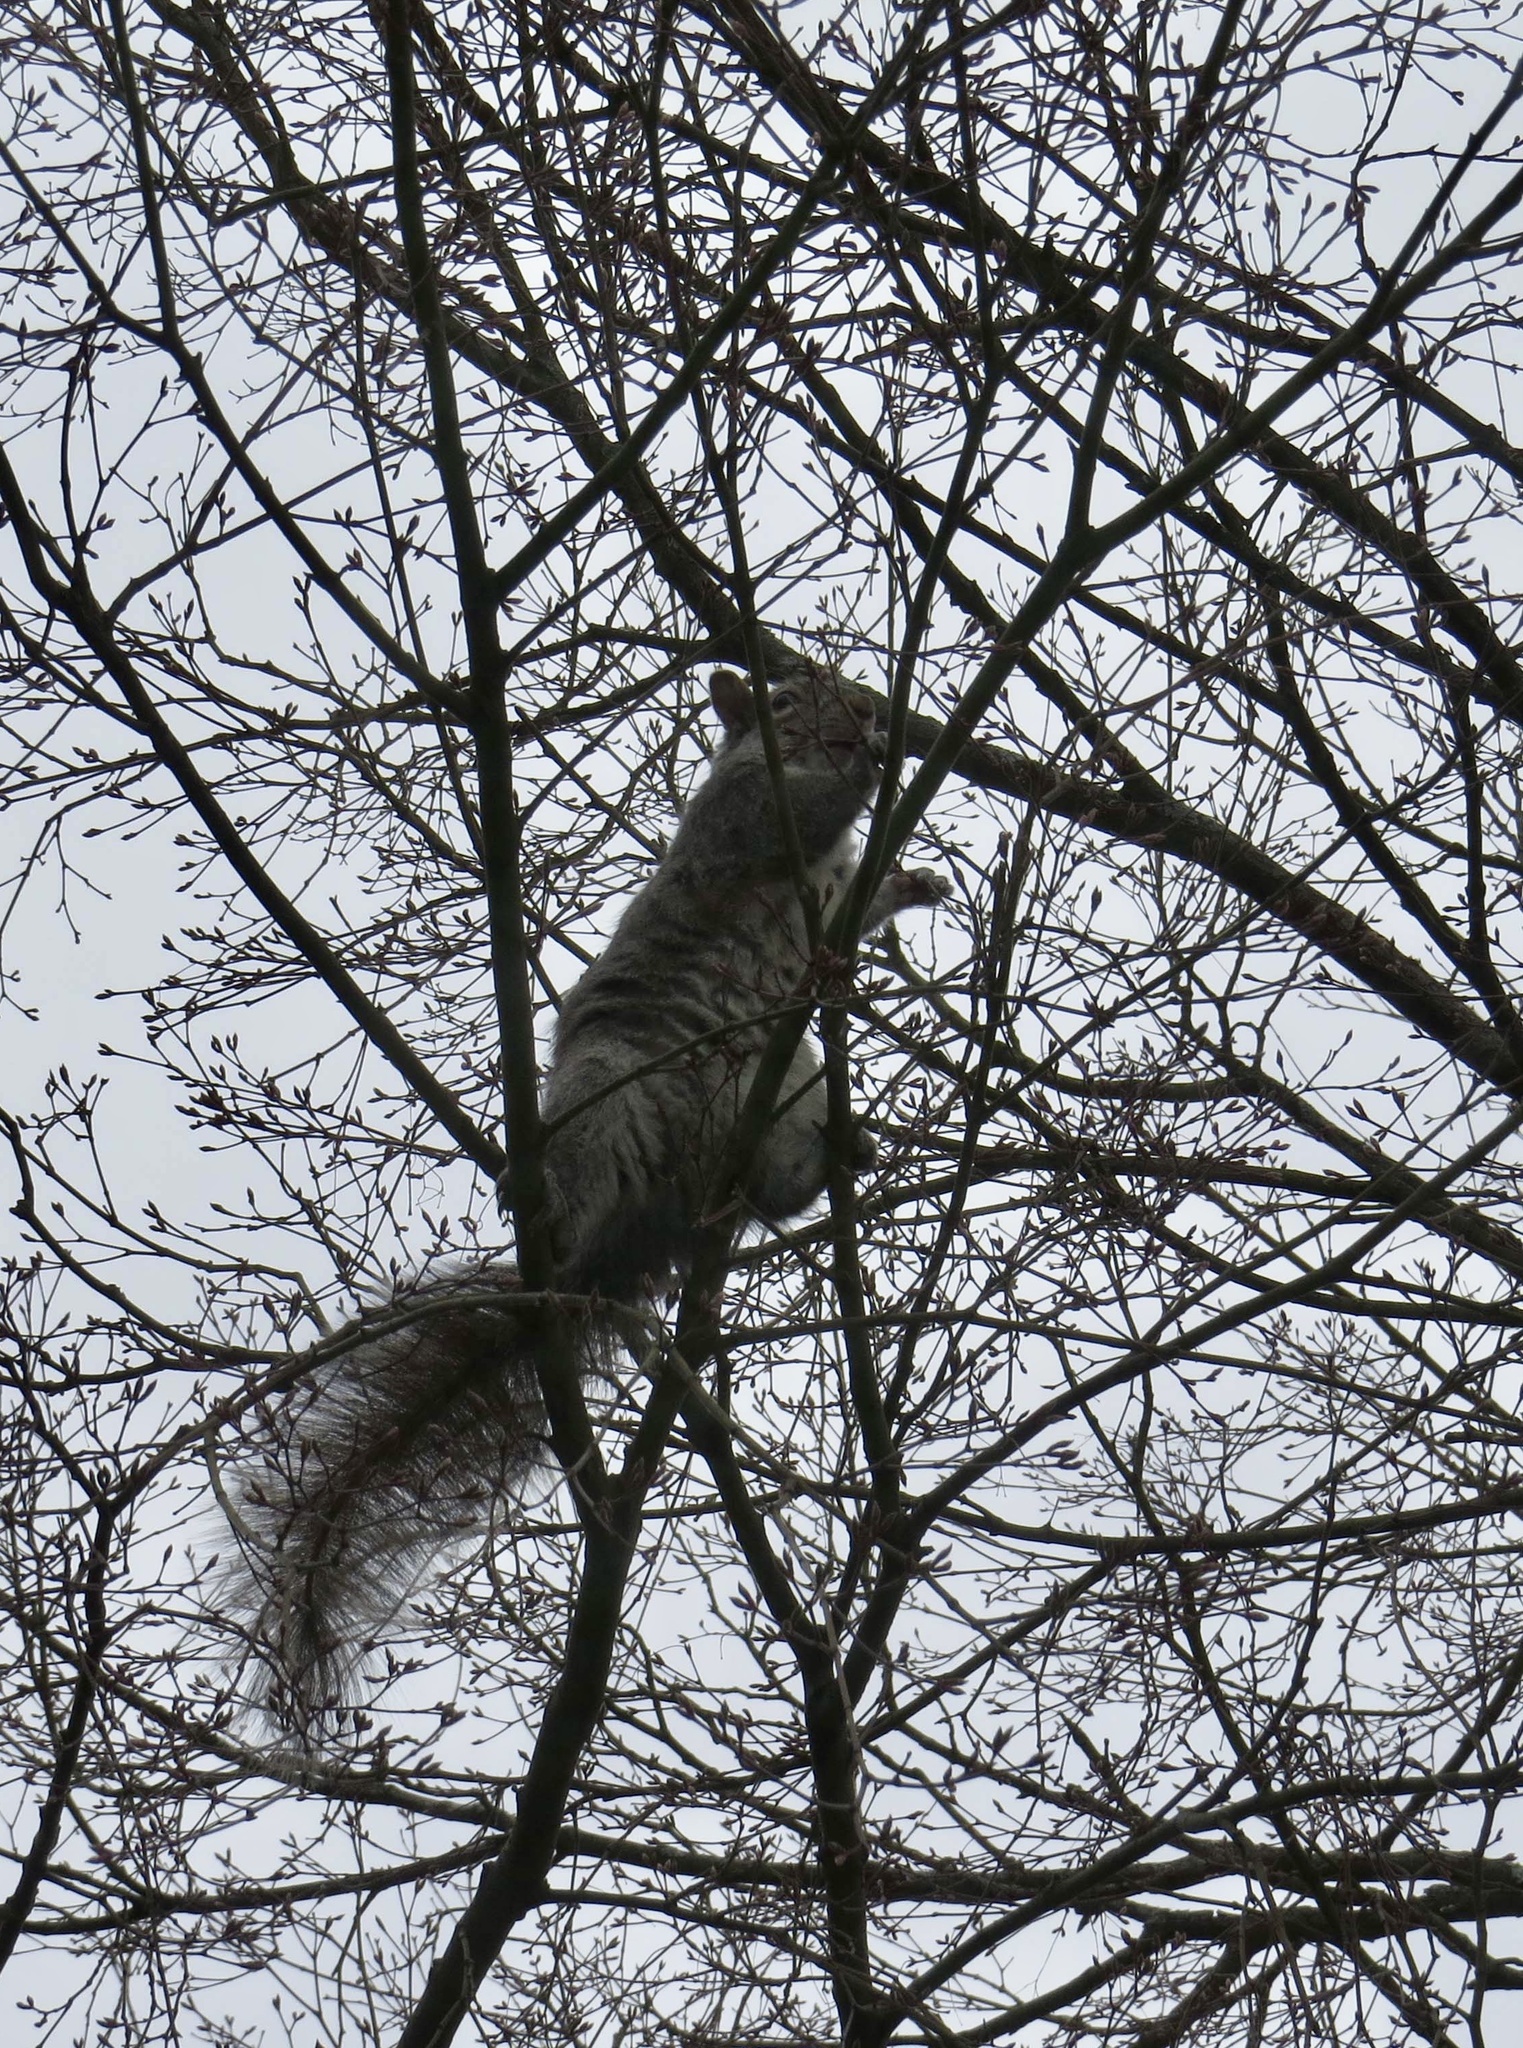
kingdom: Animalia
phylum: Chordata
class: Mammalia
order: Rodentia
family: Sciuridae
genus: Sciurus
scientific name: Sciurus carolinensis
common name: Eastern gray squirrel
